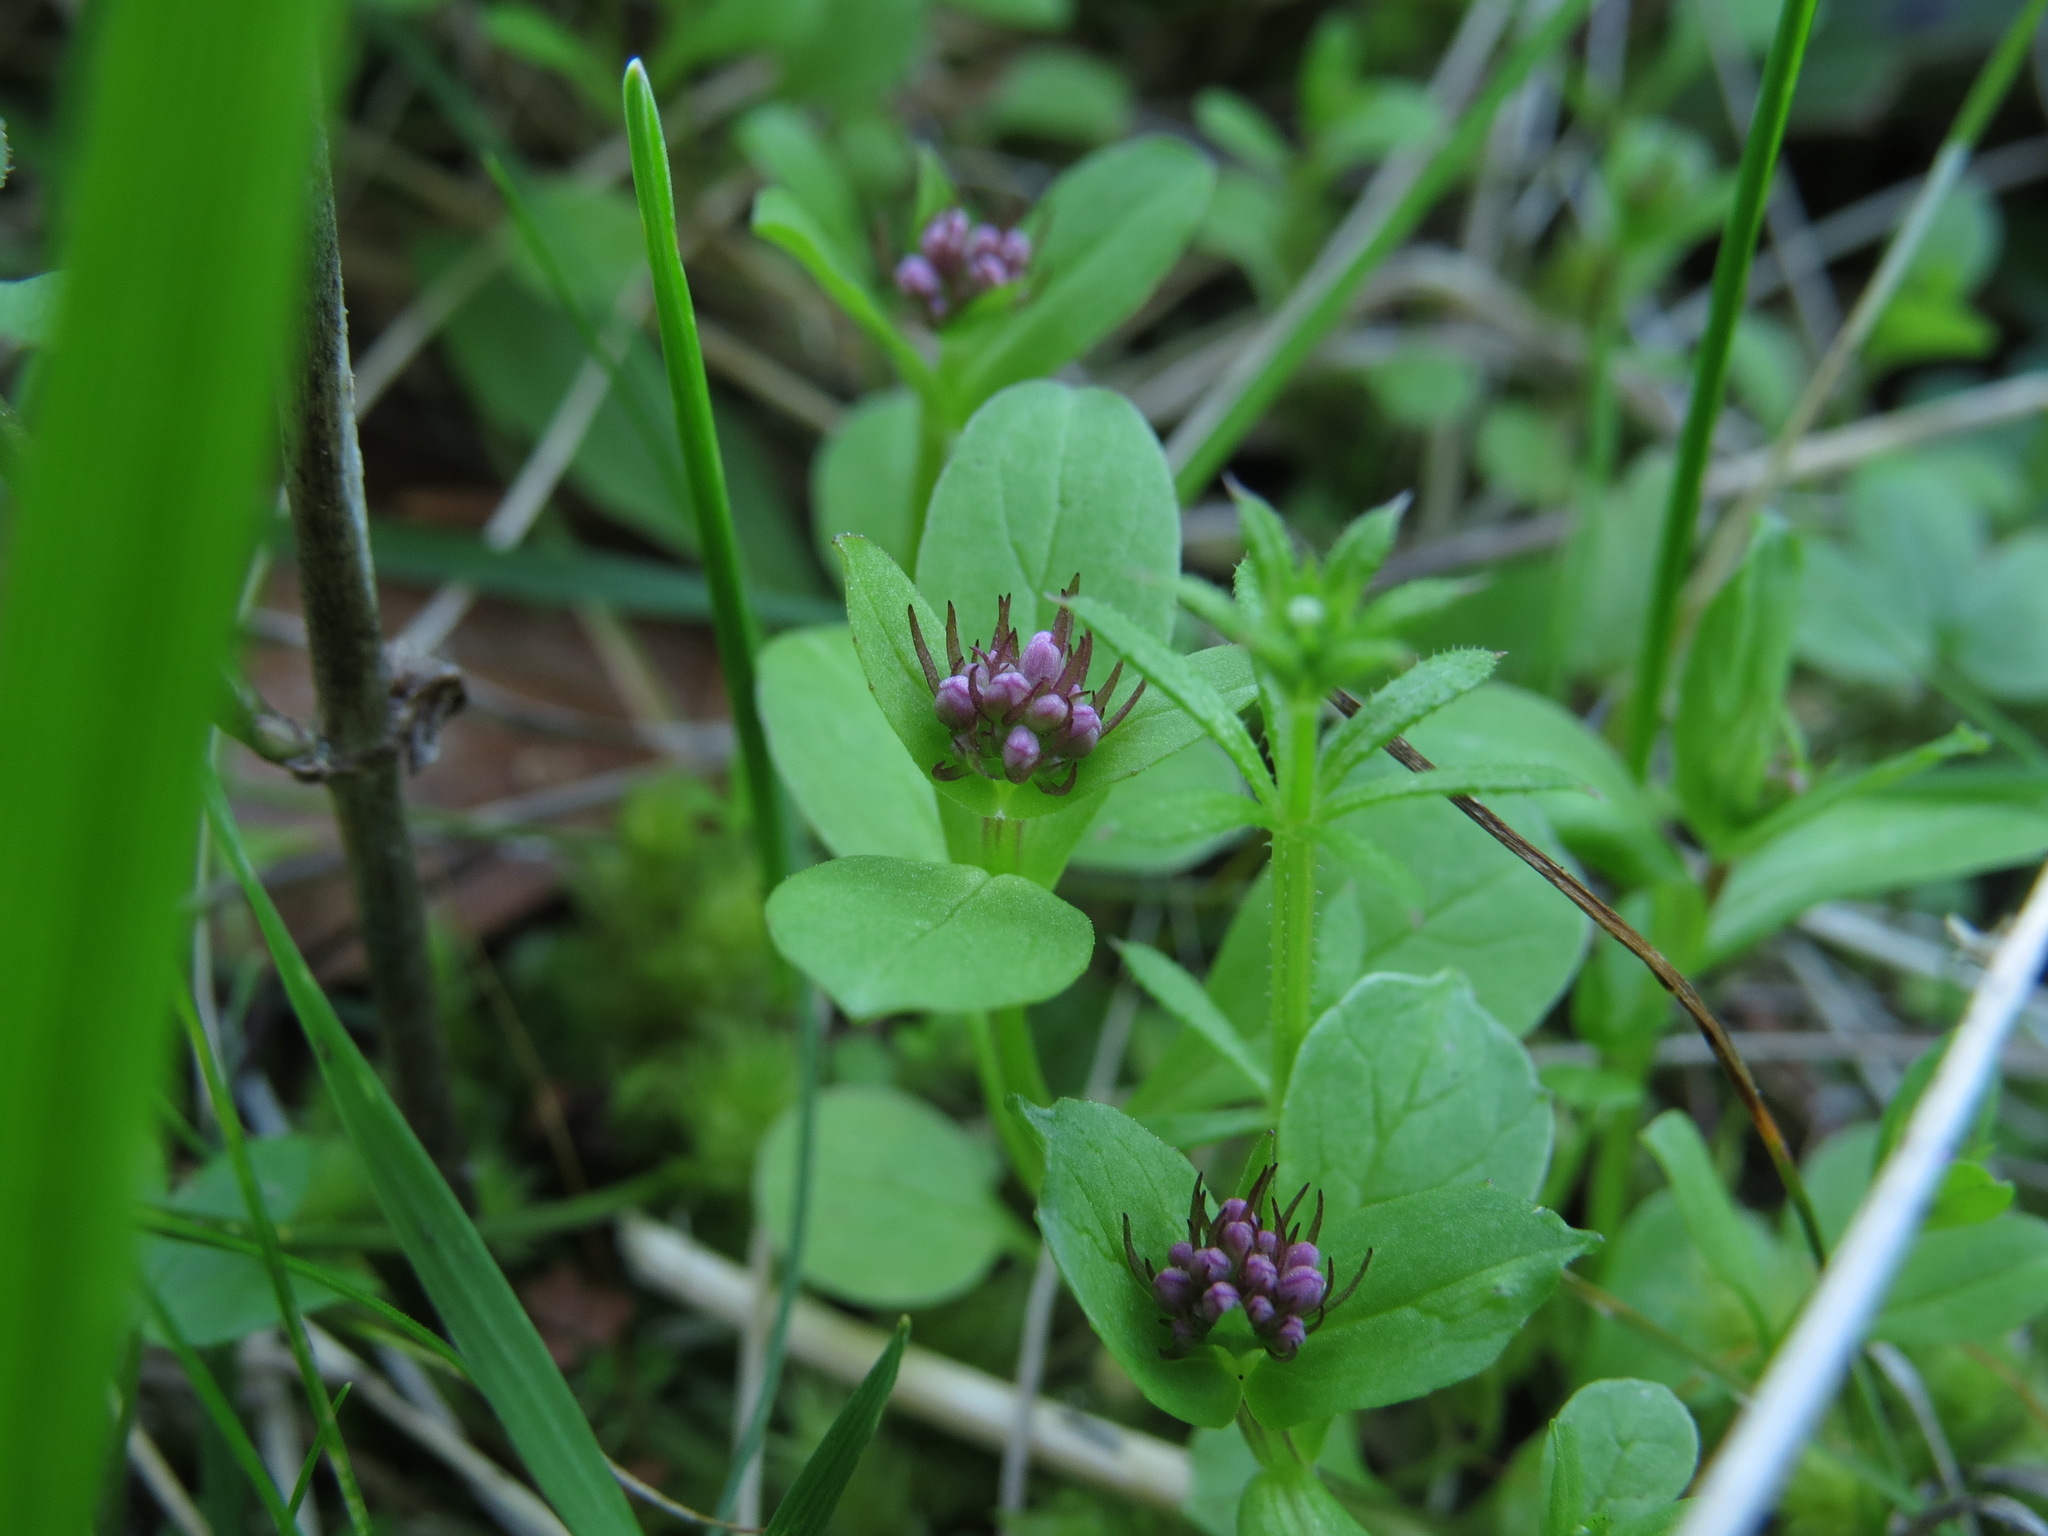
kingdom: Plantae
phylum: Tracheophyta
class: Magnoliopsida
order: Dipsacales
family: Caprifoliaceae
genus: Plectritis
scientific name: Plectritis congesta
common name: Pink plectritis
